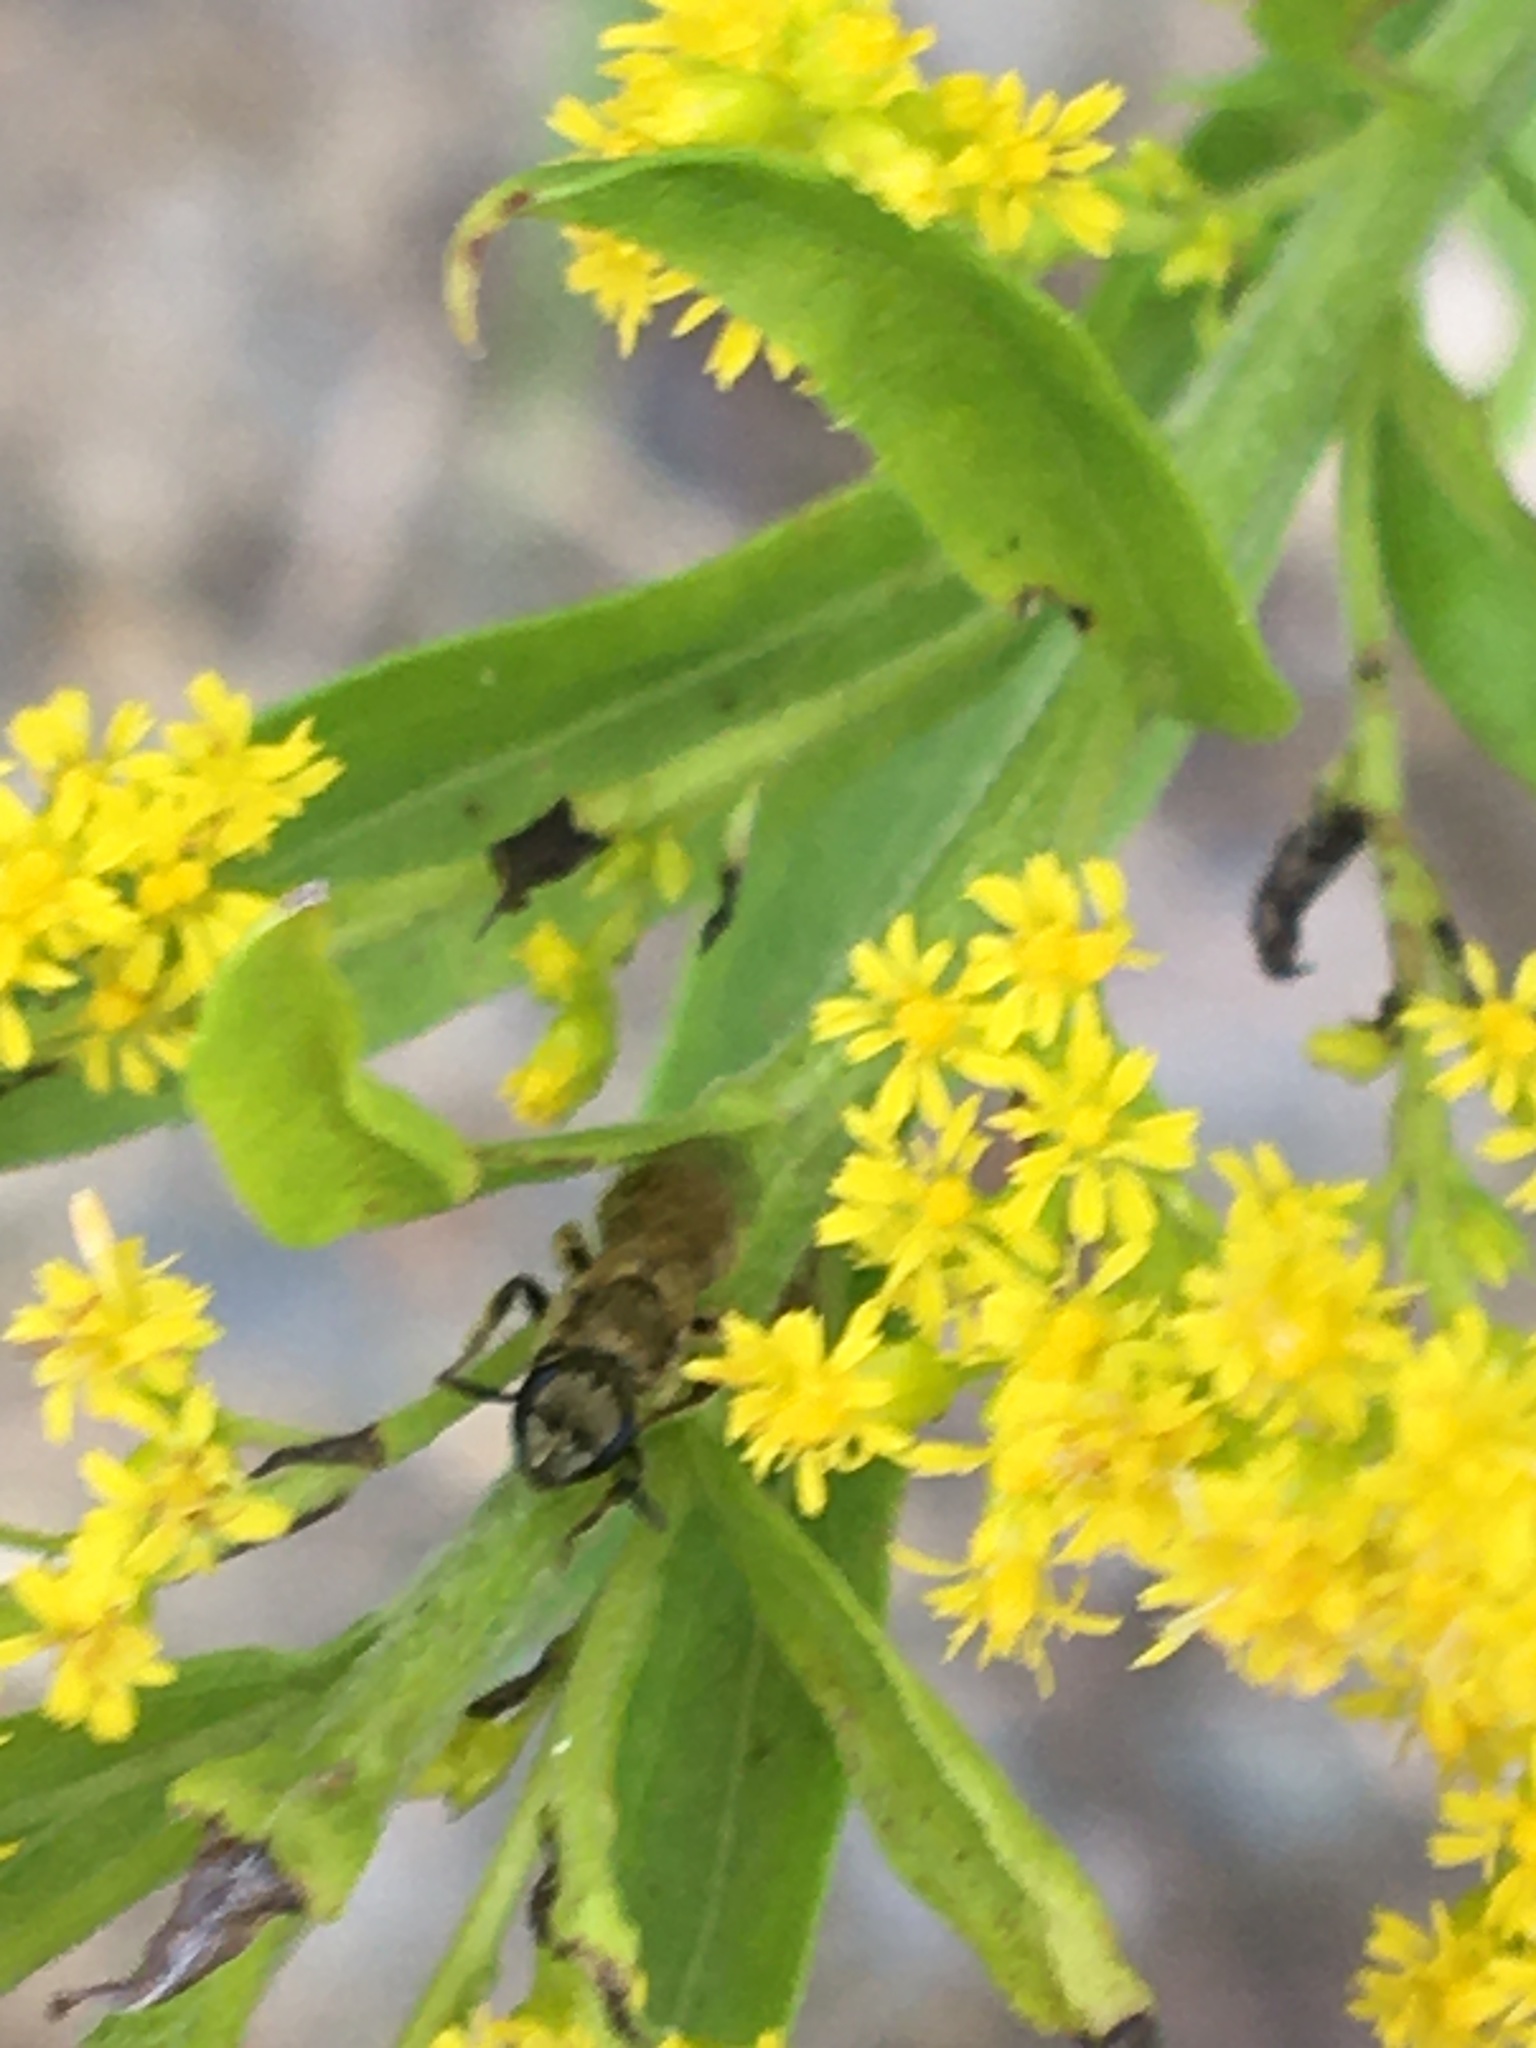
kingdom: Animalia
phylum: Arthropoda
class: Insecta
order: Hymenoptera
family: Halictidae
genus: Dialictus
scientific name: Dialictus
